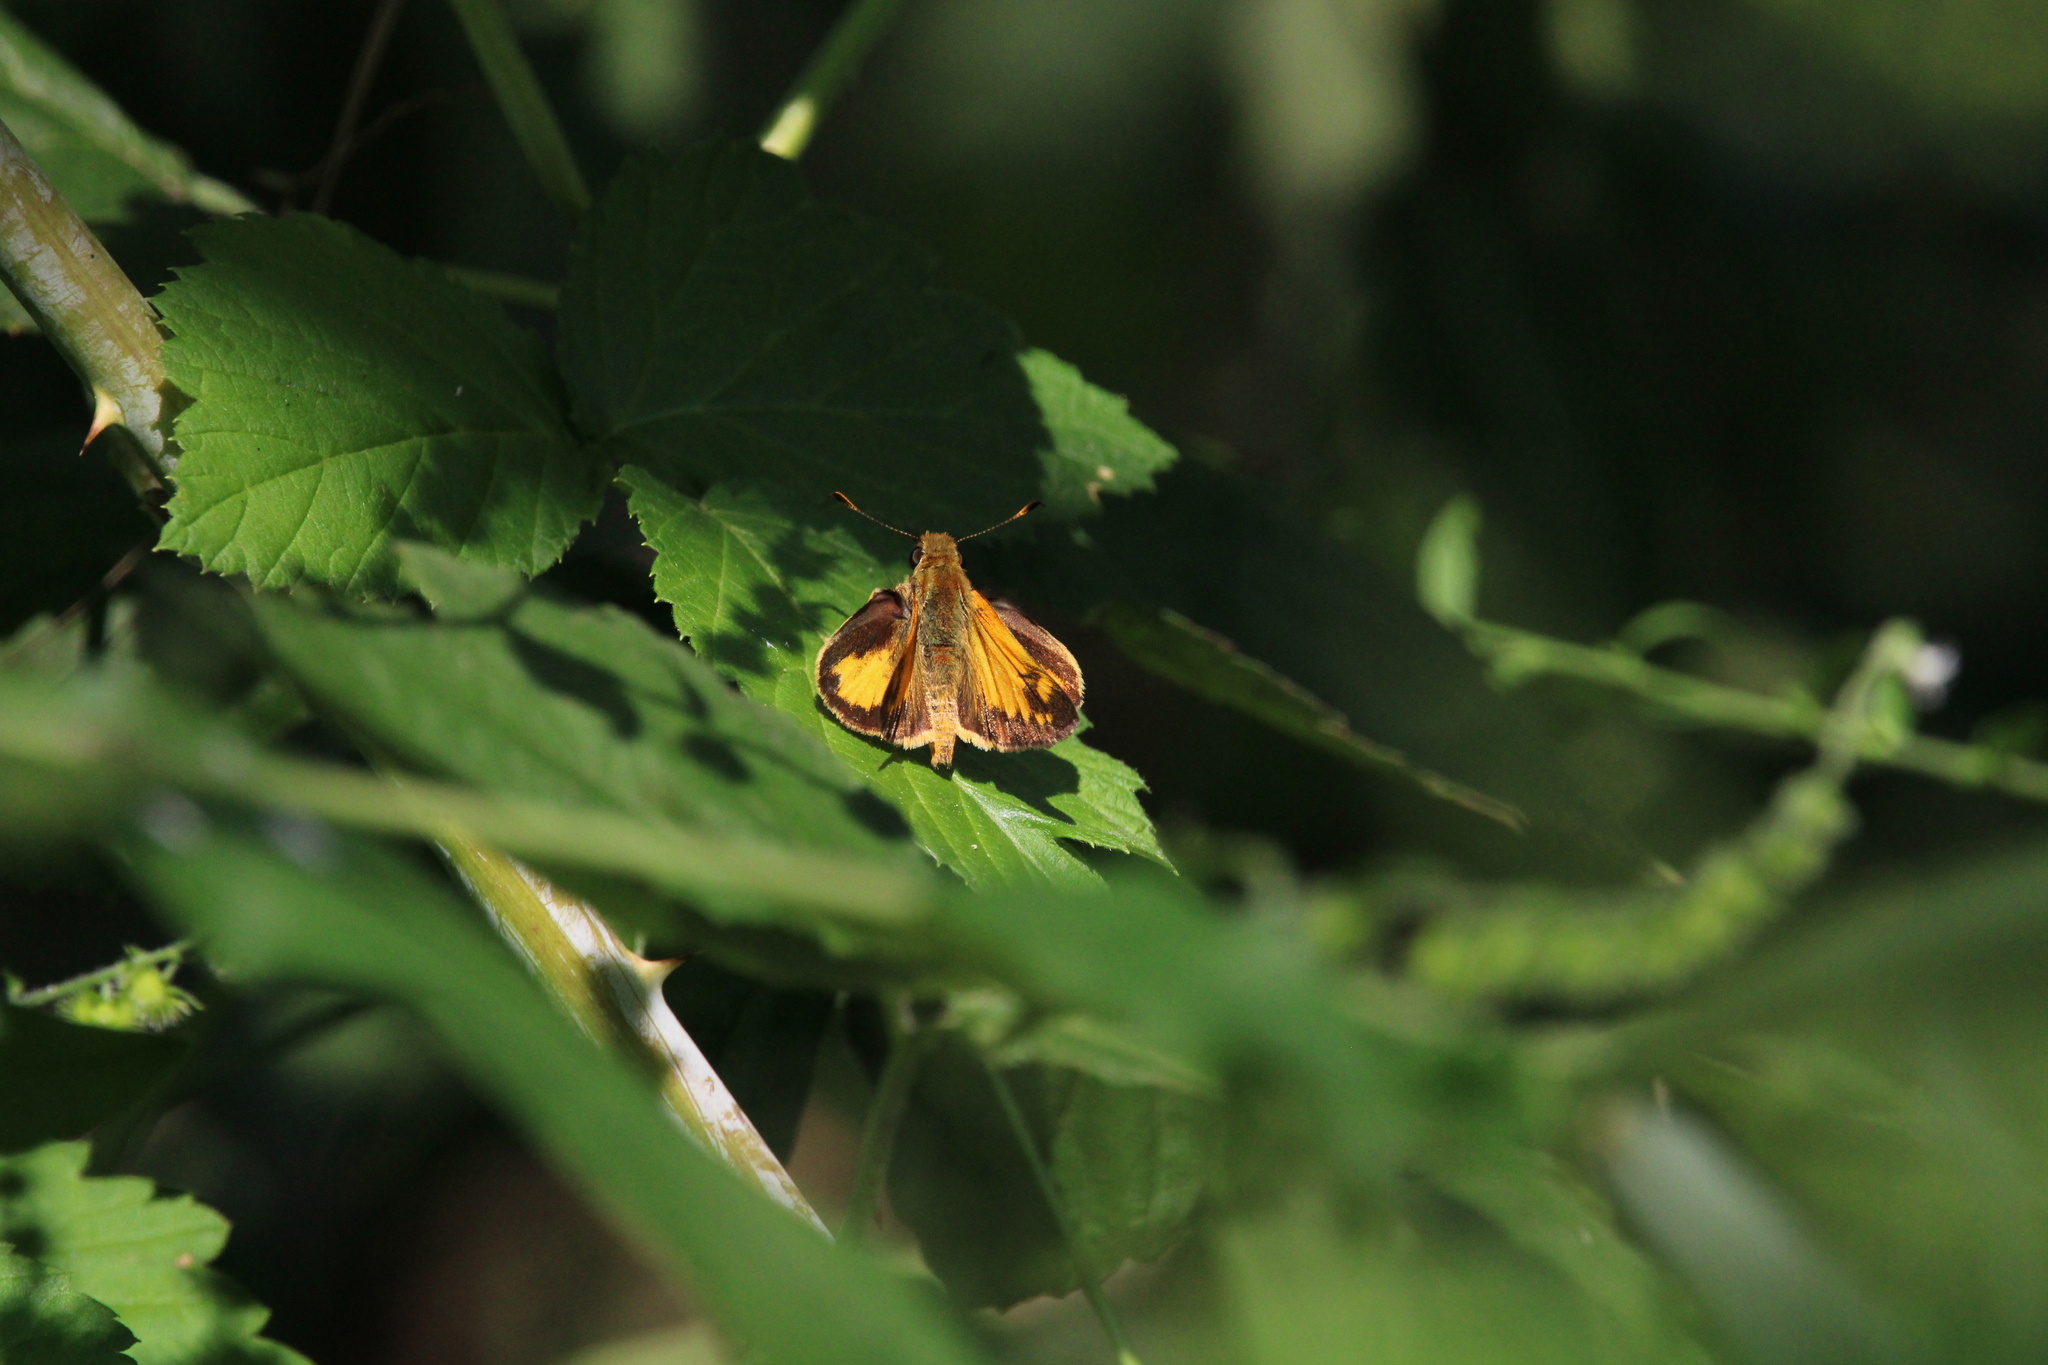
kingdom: Animalia
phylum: Arthropoda
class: Insecta
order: Lepidoptera
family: Hesperiidae
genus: Lon
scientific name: Lon zabulon
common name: Zabulon skipper
